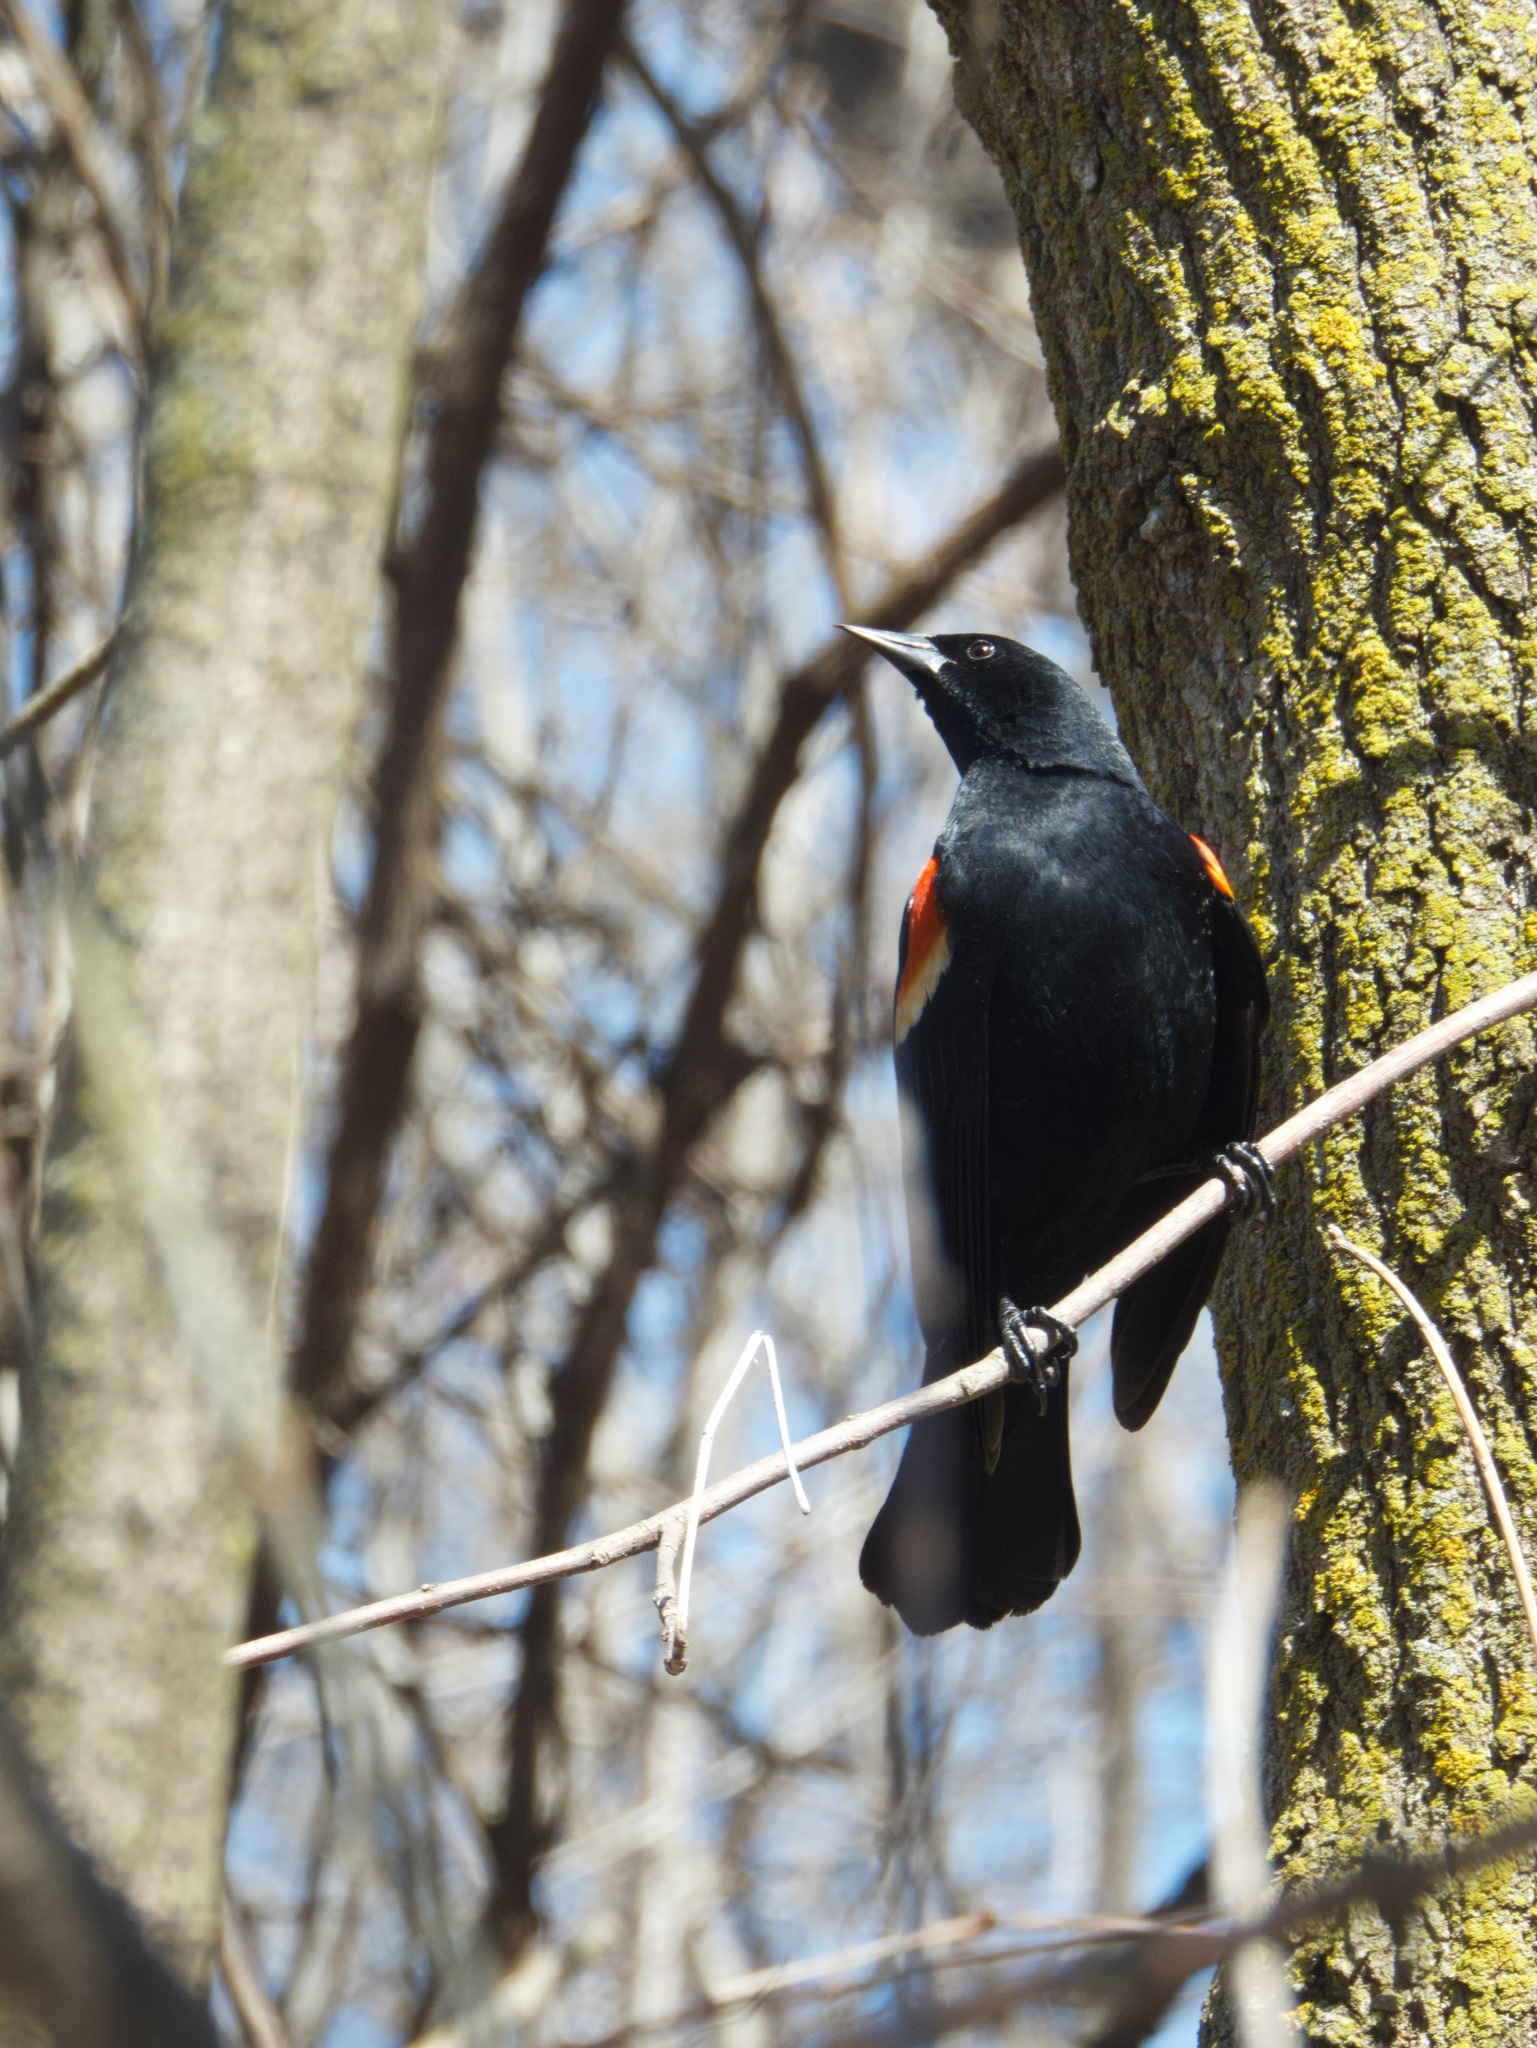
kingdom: Animalia
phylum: Chordata
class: Aves
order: Passeriformes
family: Icteridae
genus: Agelaius
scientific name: Agelaius phoeniceus
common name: Red-winged blackbird
